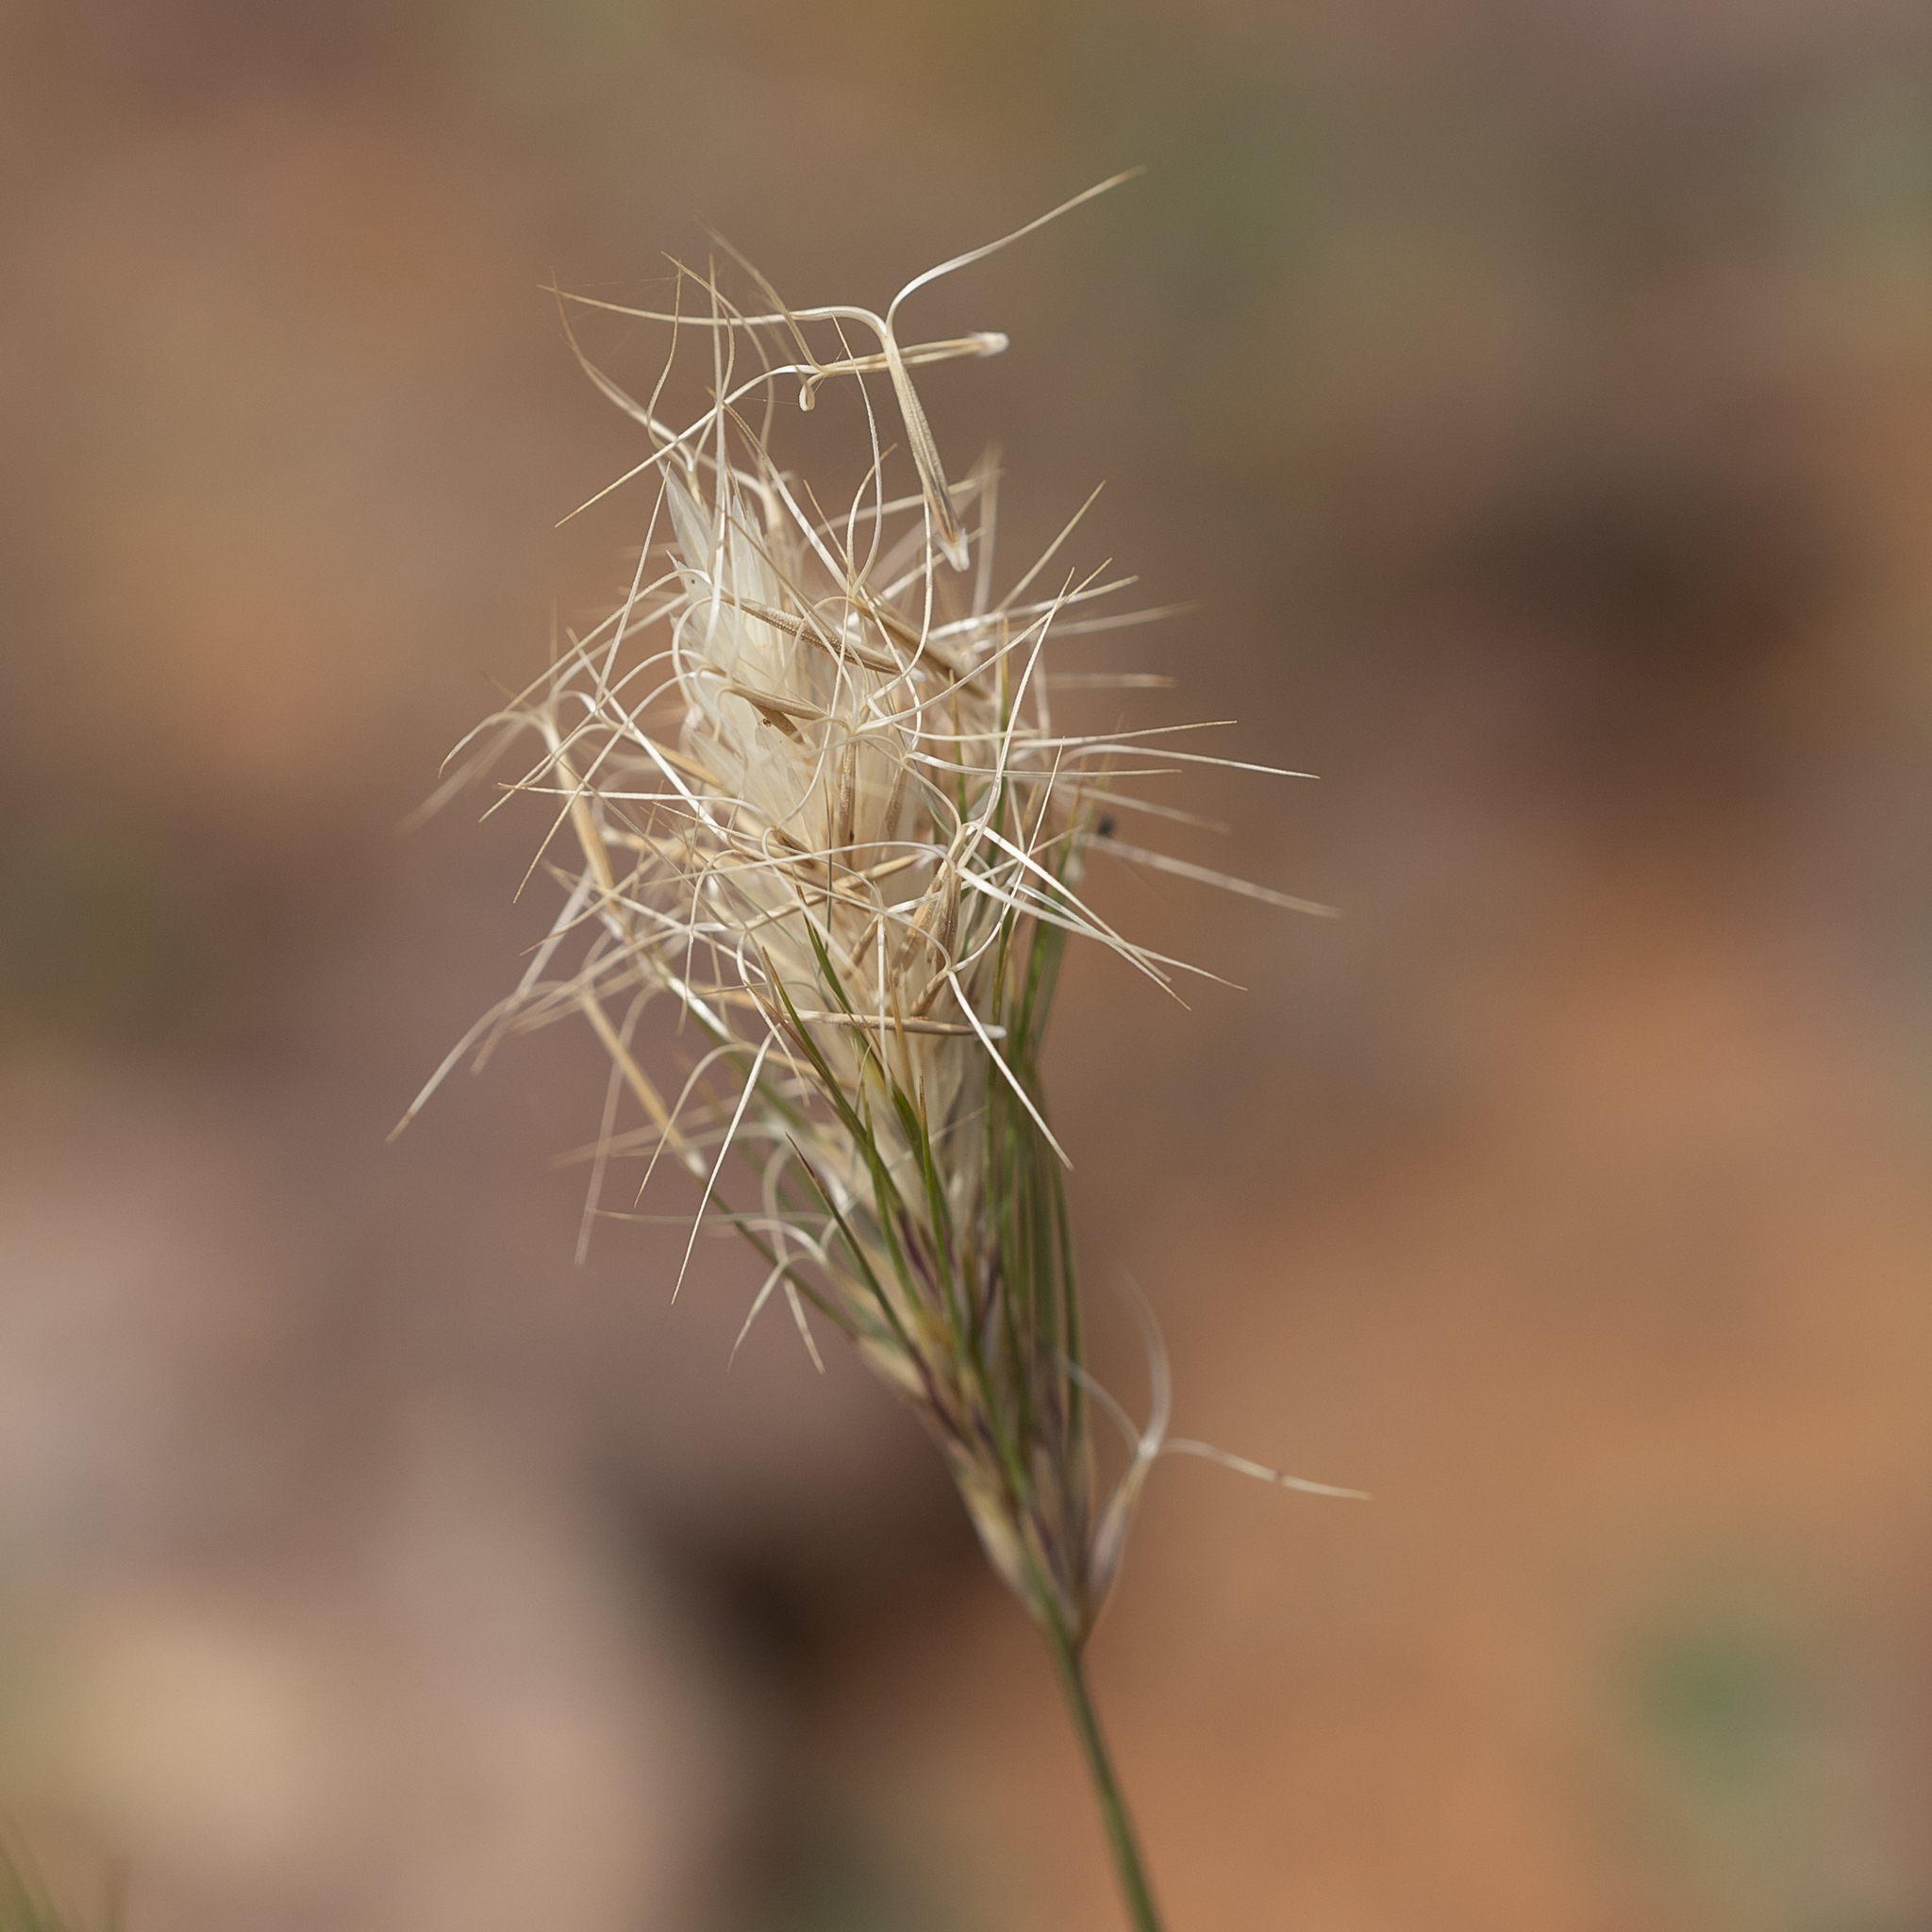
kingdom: Plantae
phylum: Tracheophyta
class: Liliopsida
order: Poales
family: Poaceae
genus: Aristida
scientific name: Aristida anthoxanthoides
